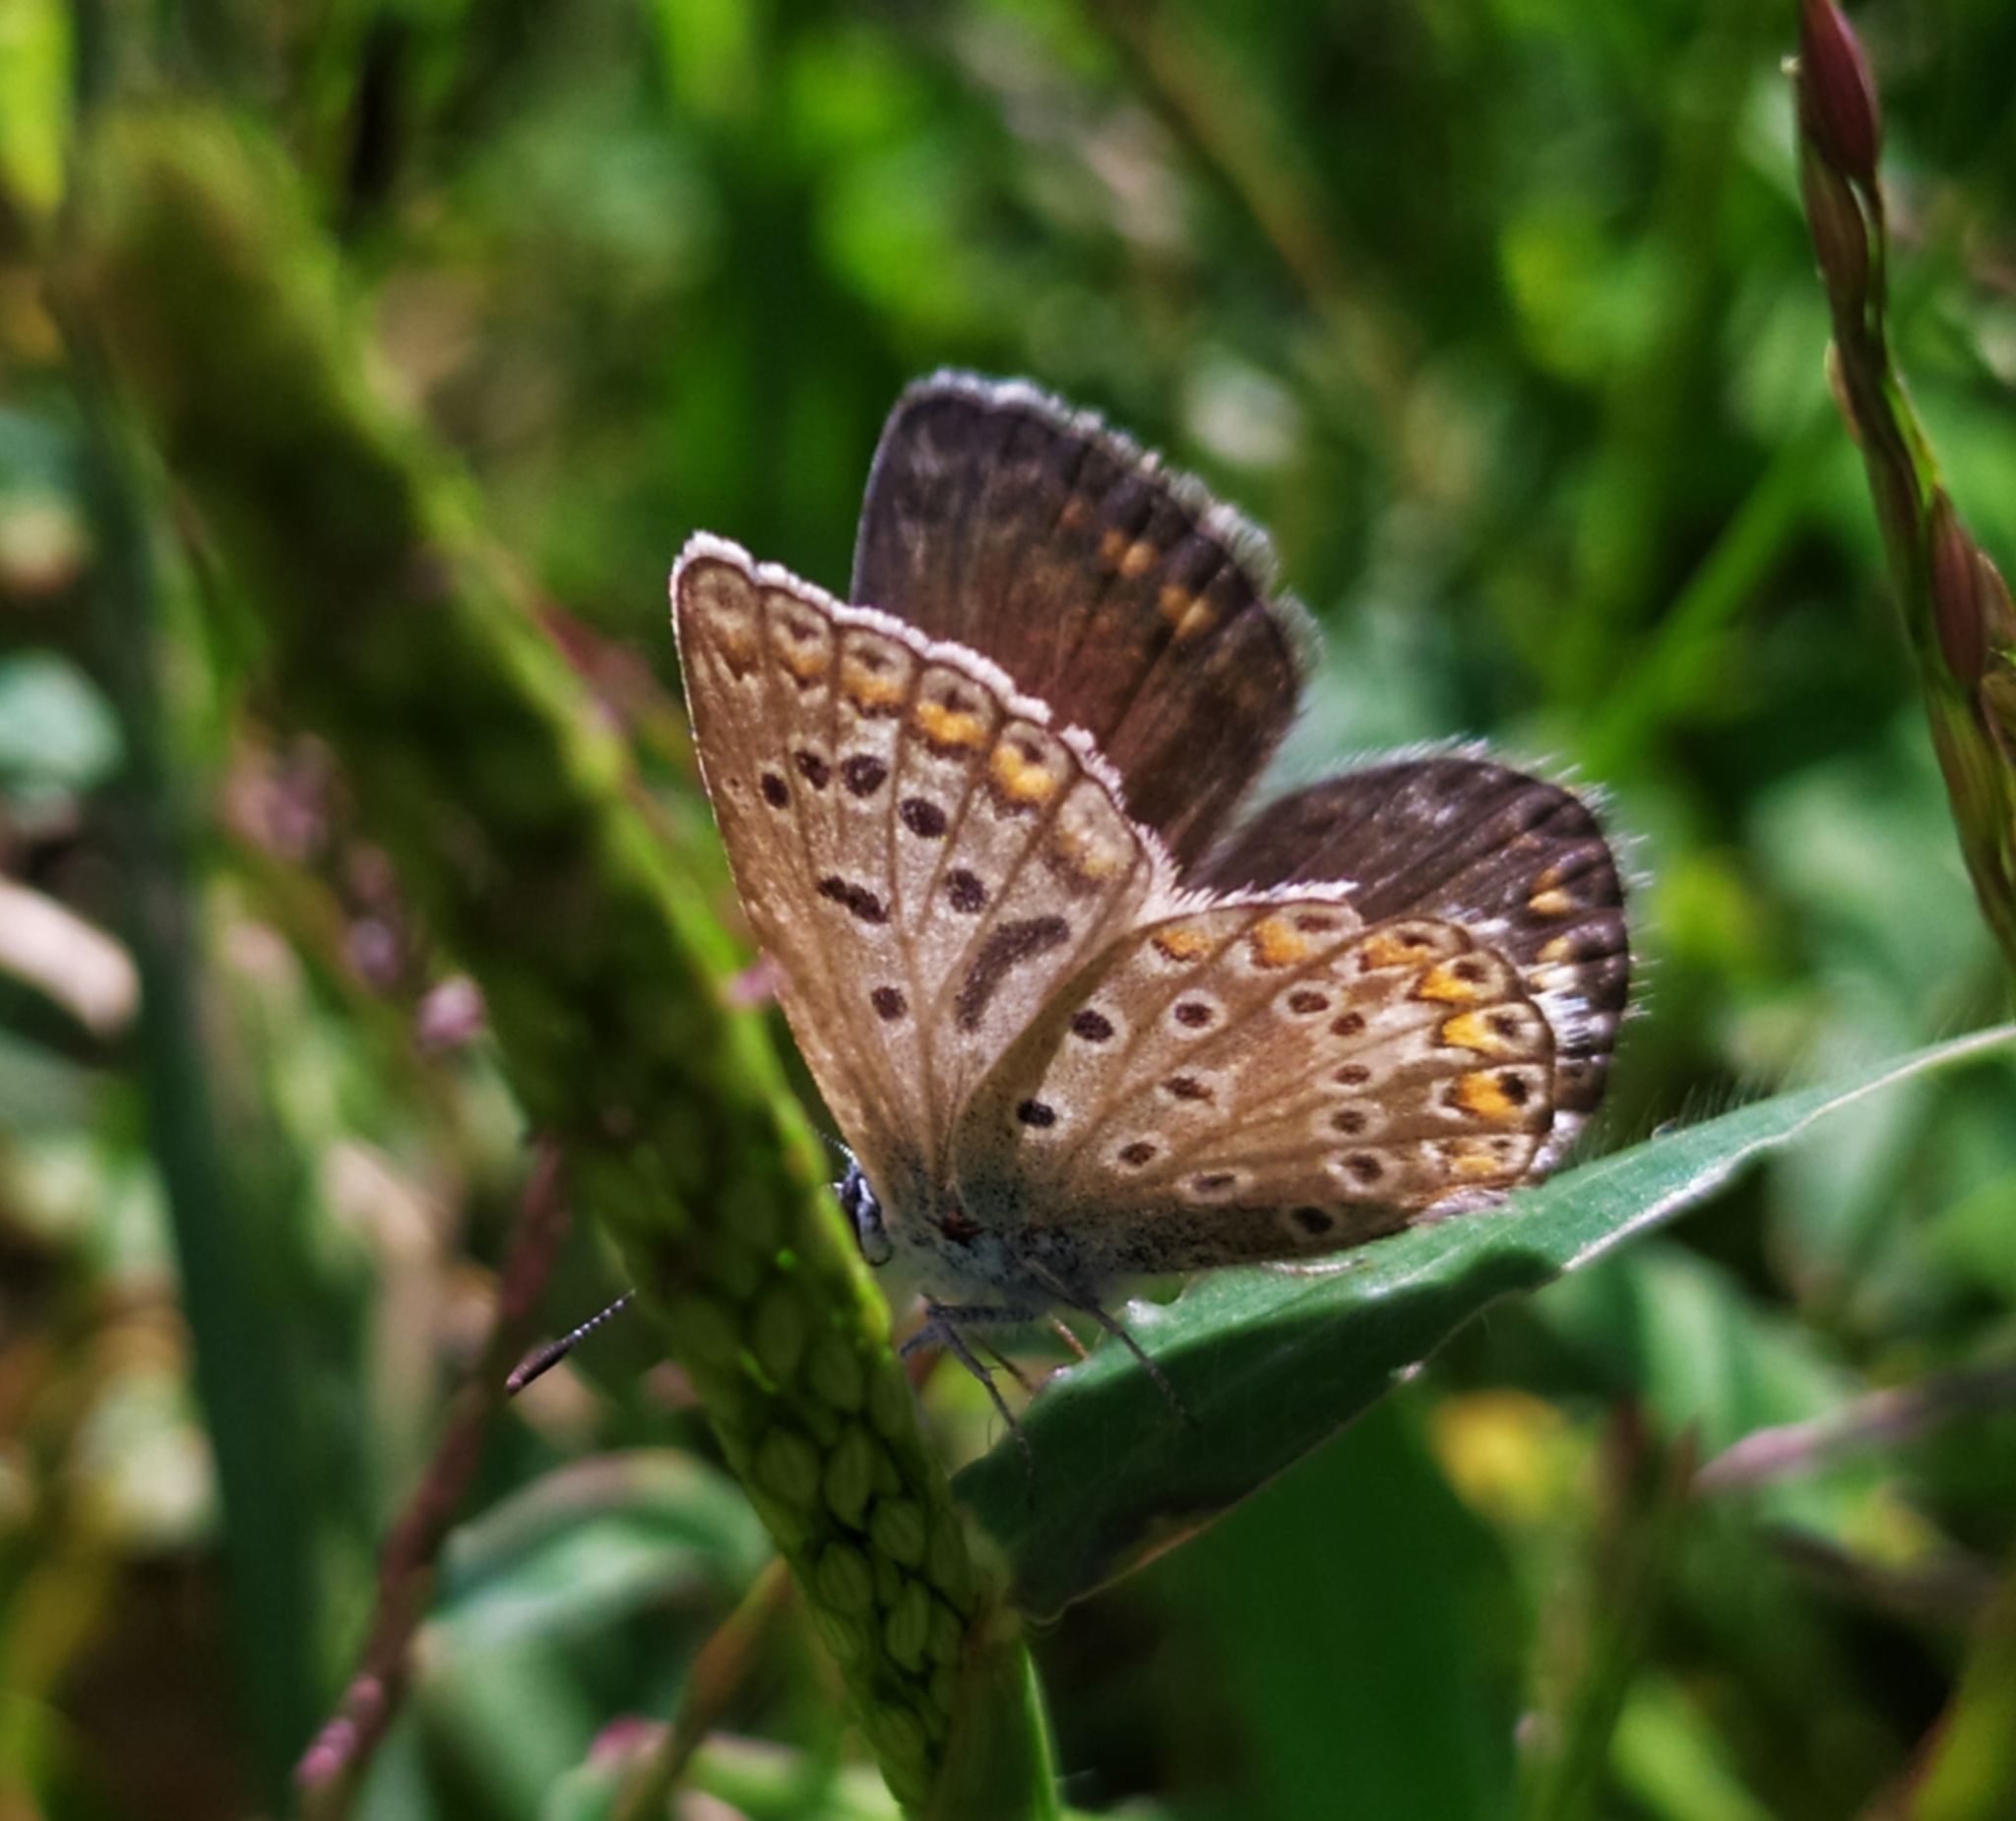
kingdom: Animalia
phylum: Arthropoda
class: Insecta
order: Lepidoptera
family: Lycaenidae
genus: Polyommatus
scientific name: Polyommatus icarus
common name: Common blue
